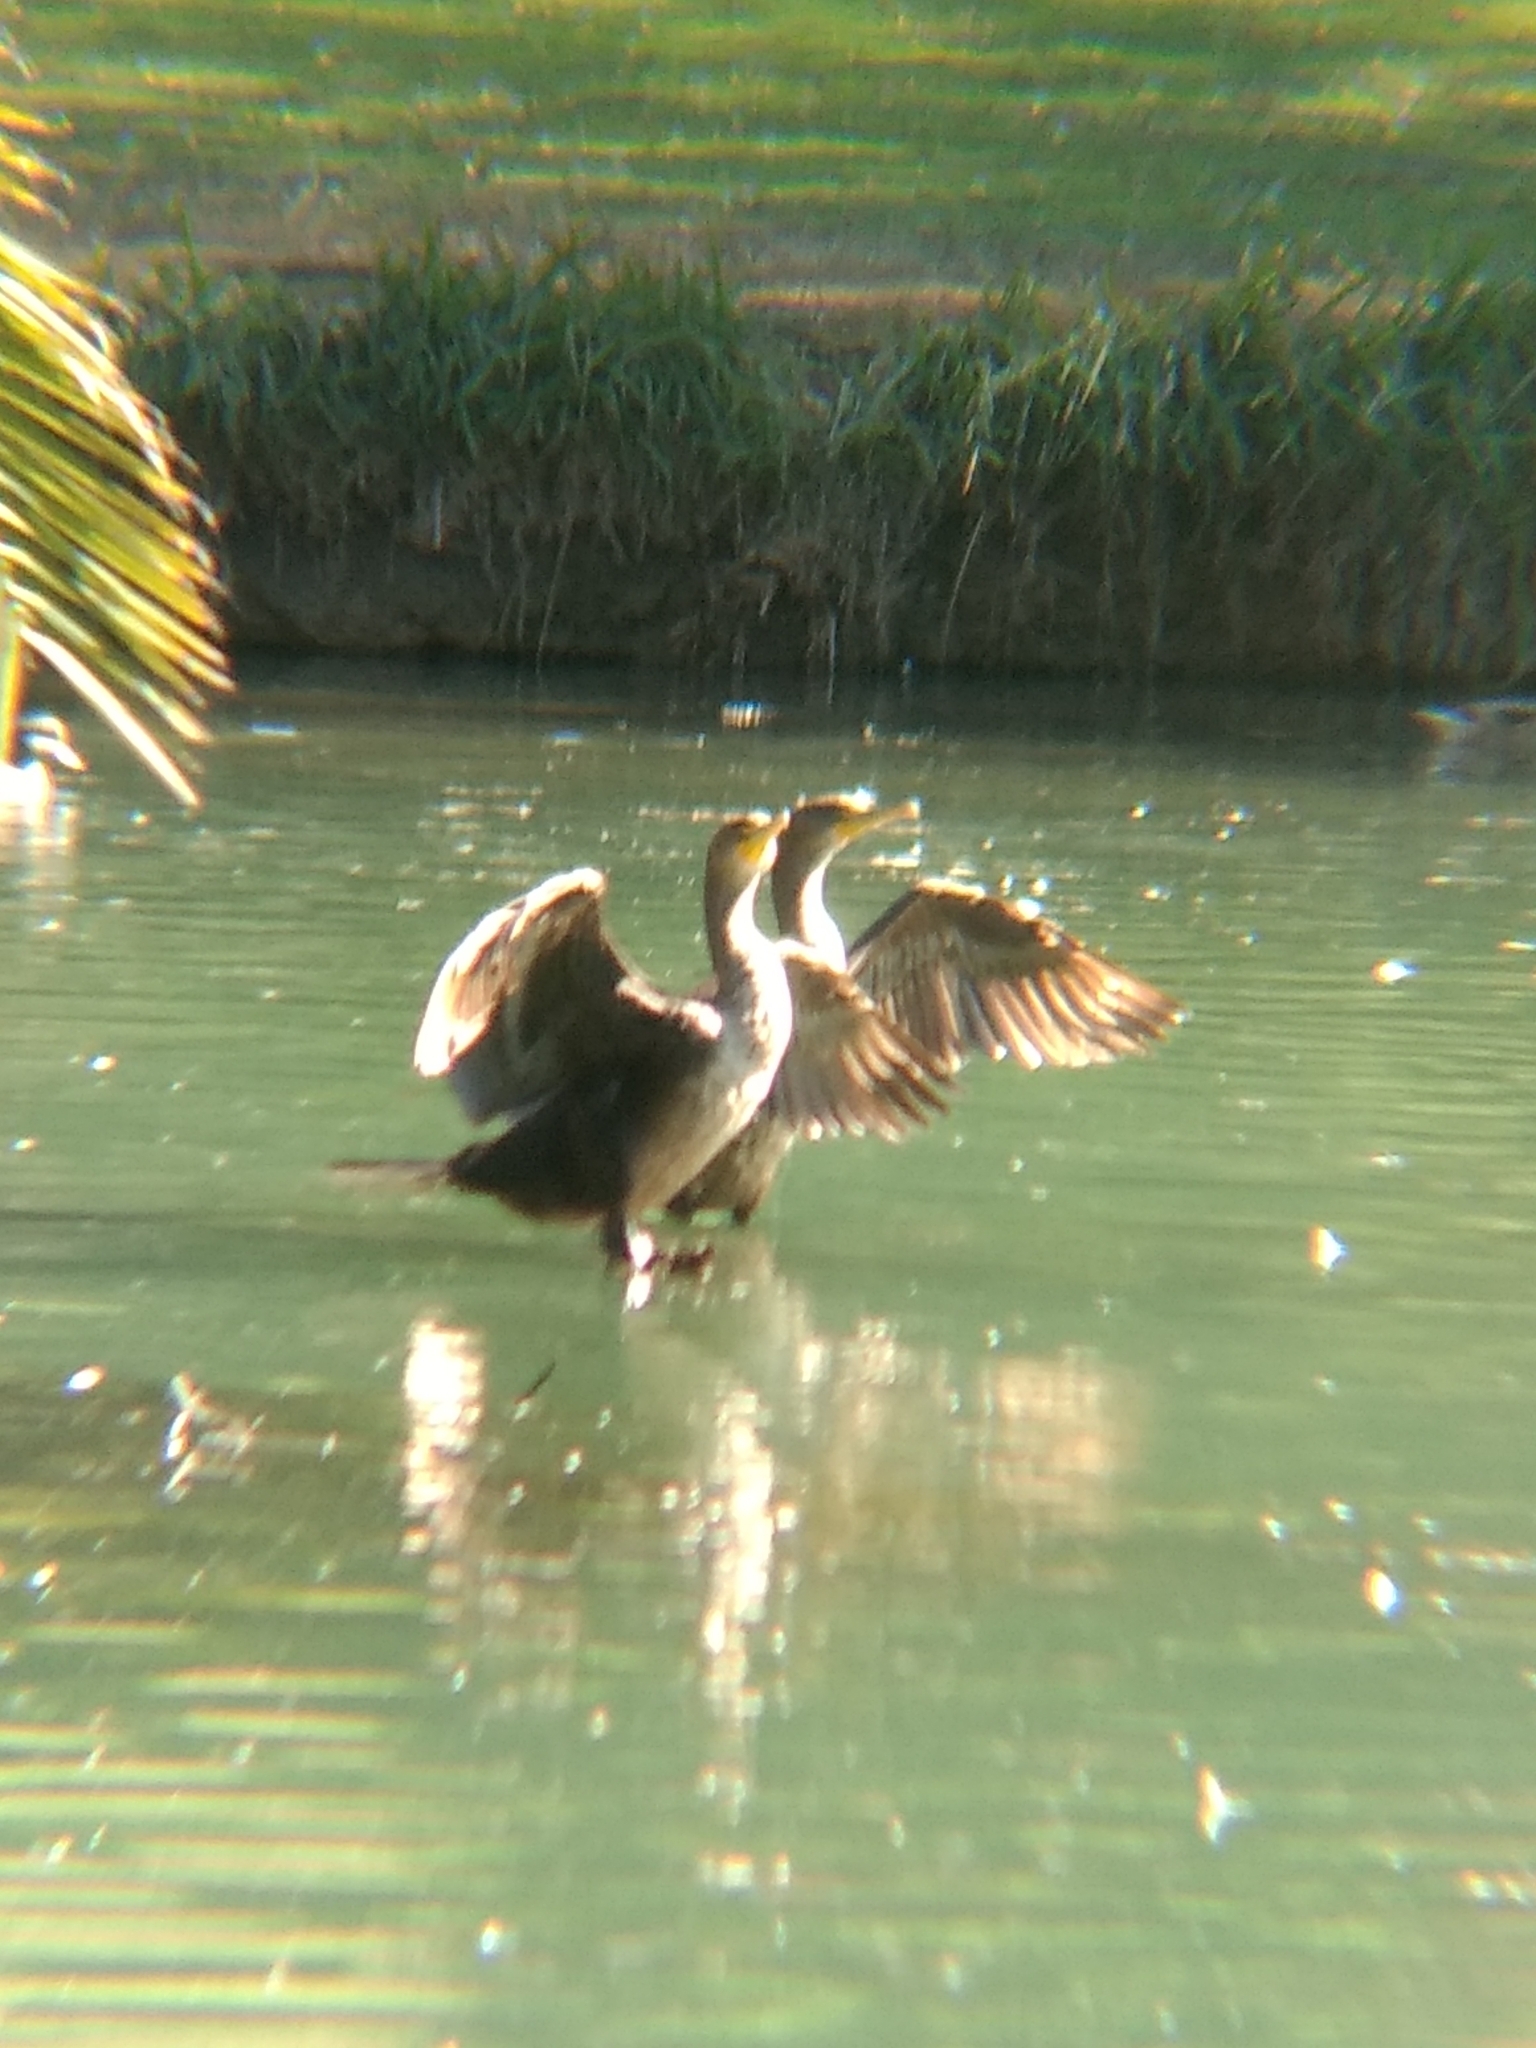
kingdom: Animalia
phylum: Chordata
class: Aves
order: Suliformes
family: Phalacrocoracidae
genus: Phalacrocorax
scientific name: Phalacrocorax auritus
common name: Double-crested cormorant
